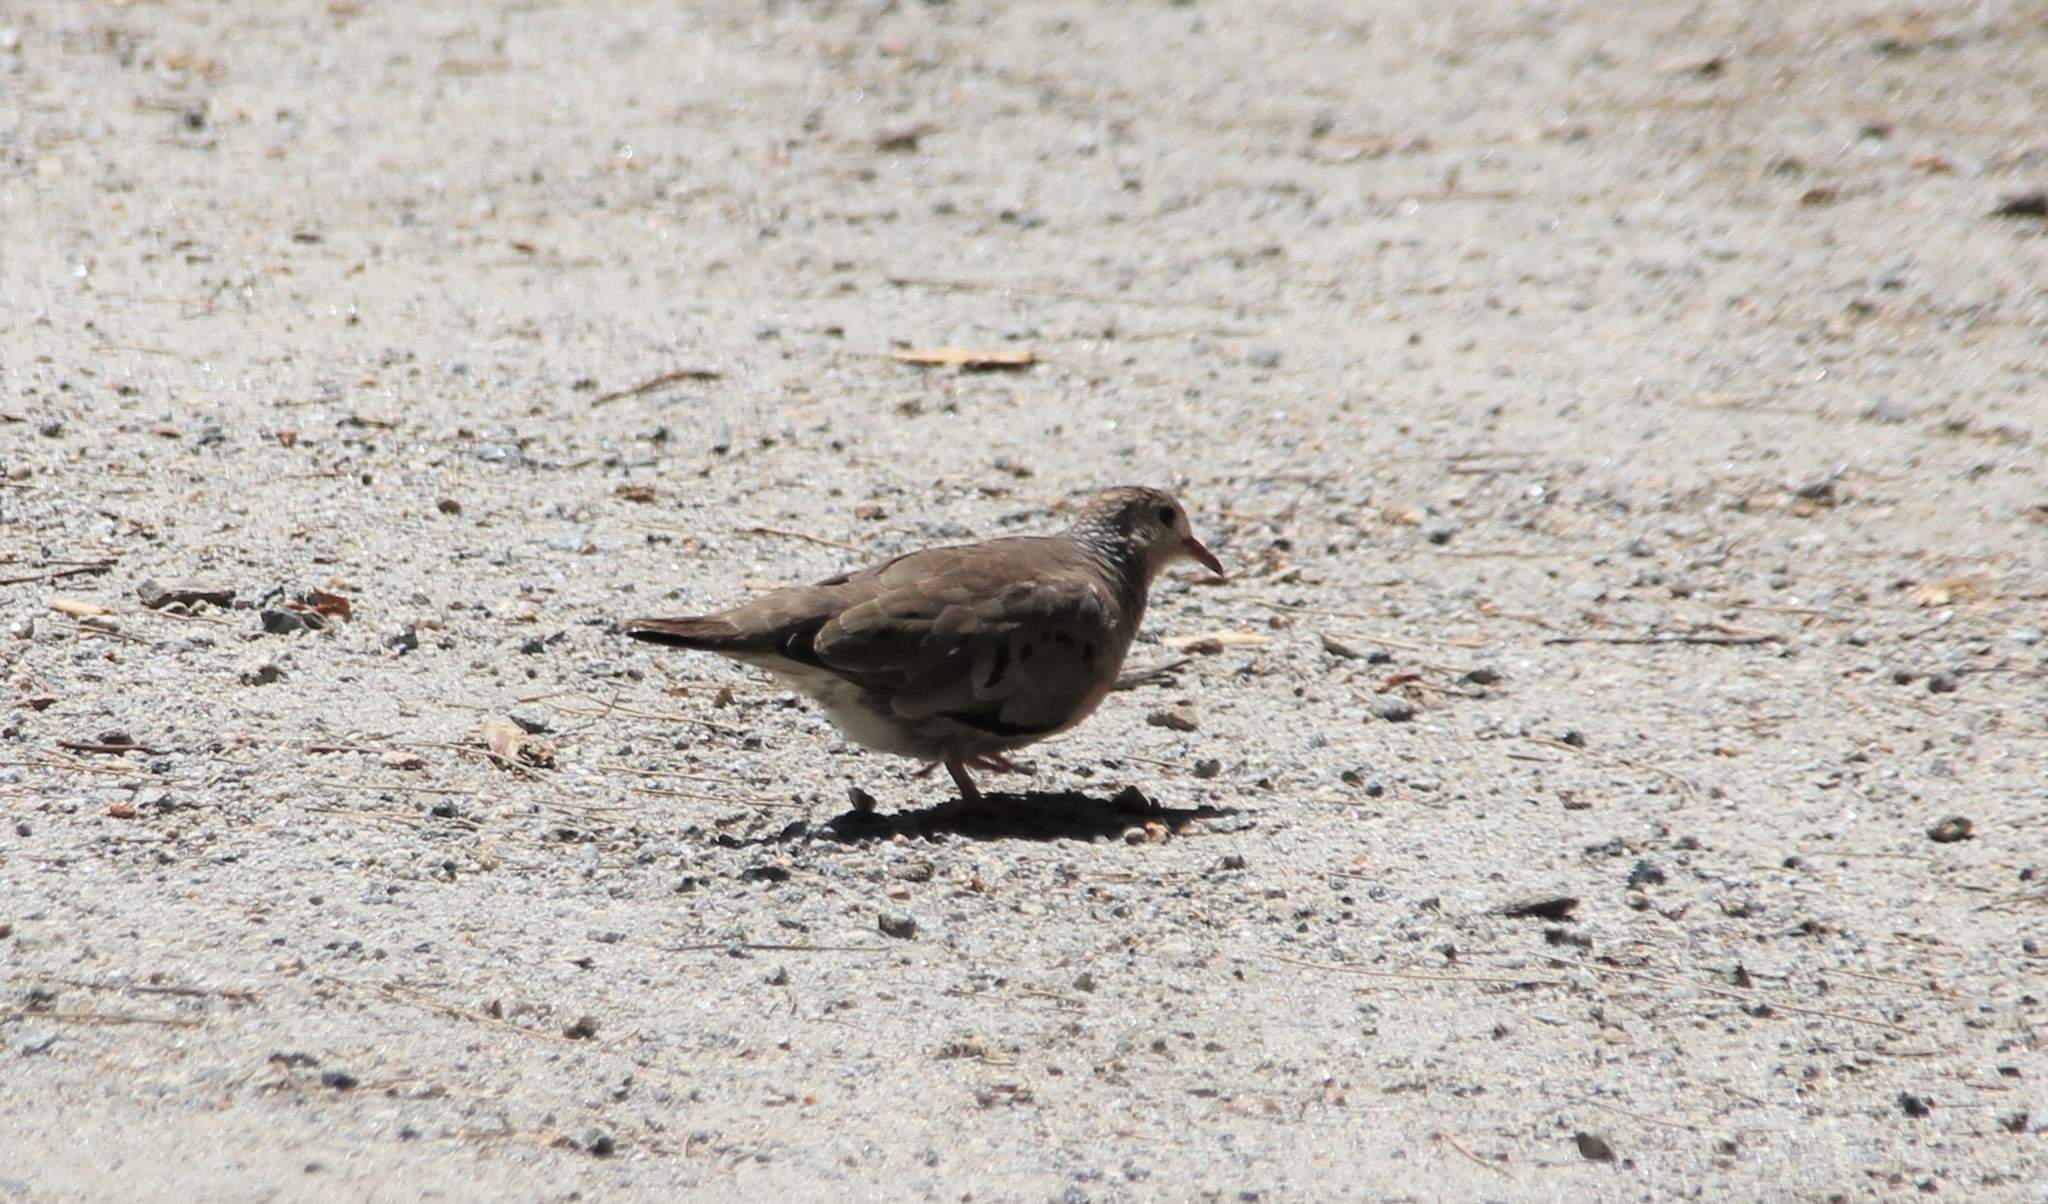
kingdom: Animalia
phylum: Chordata
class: Aves
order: Columbiformes
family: Columbidae
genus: Columbina
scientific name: Columbina passerina
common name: Common ground-dove
